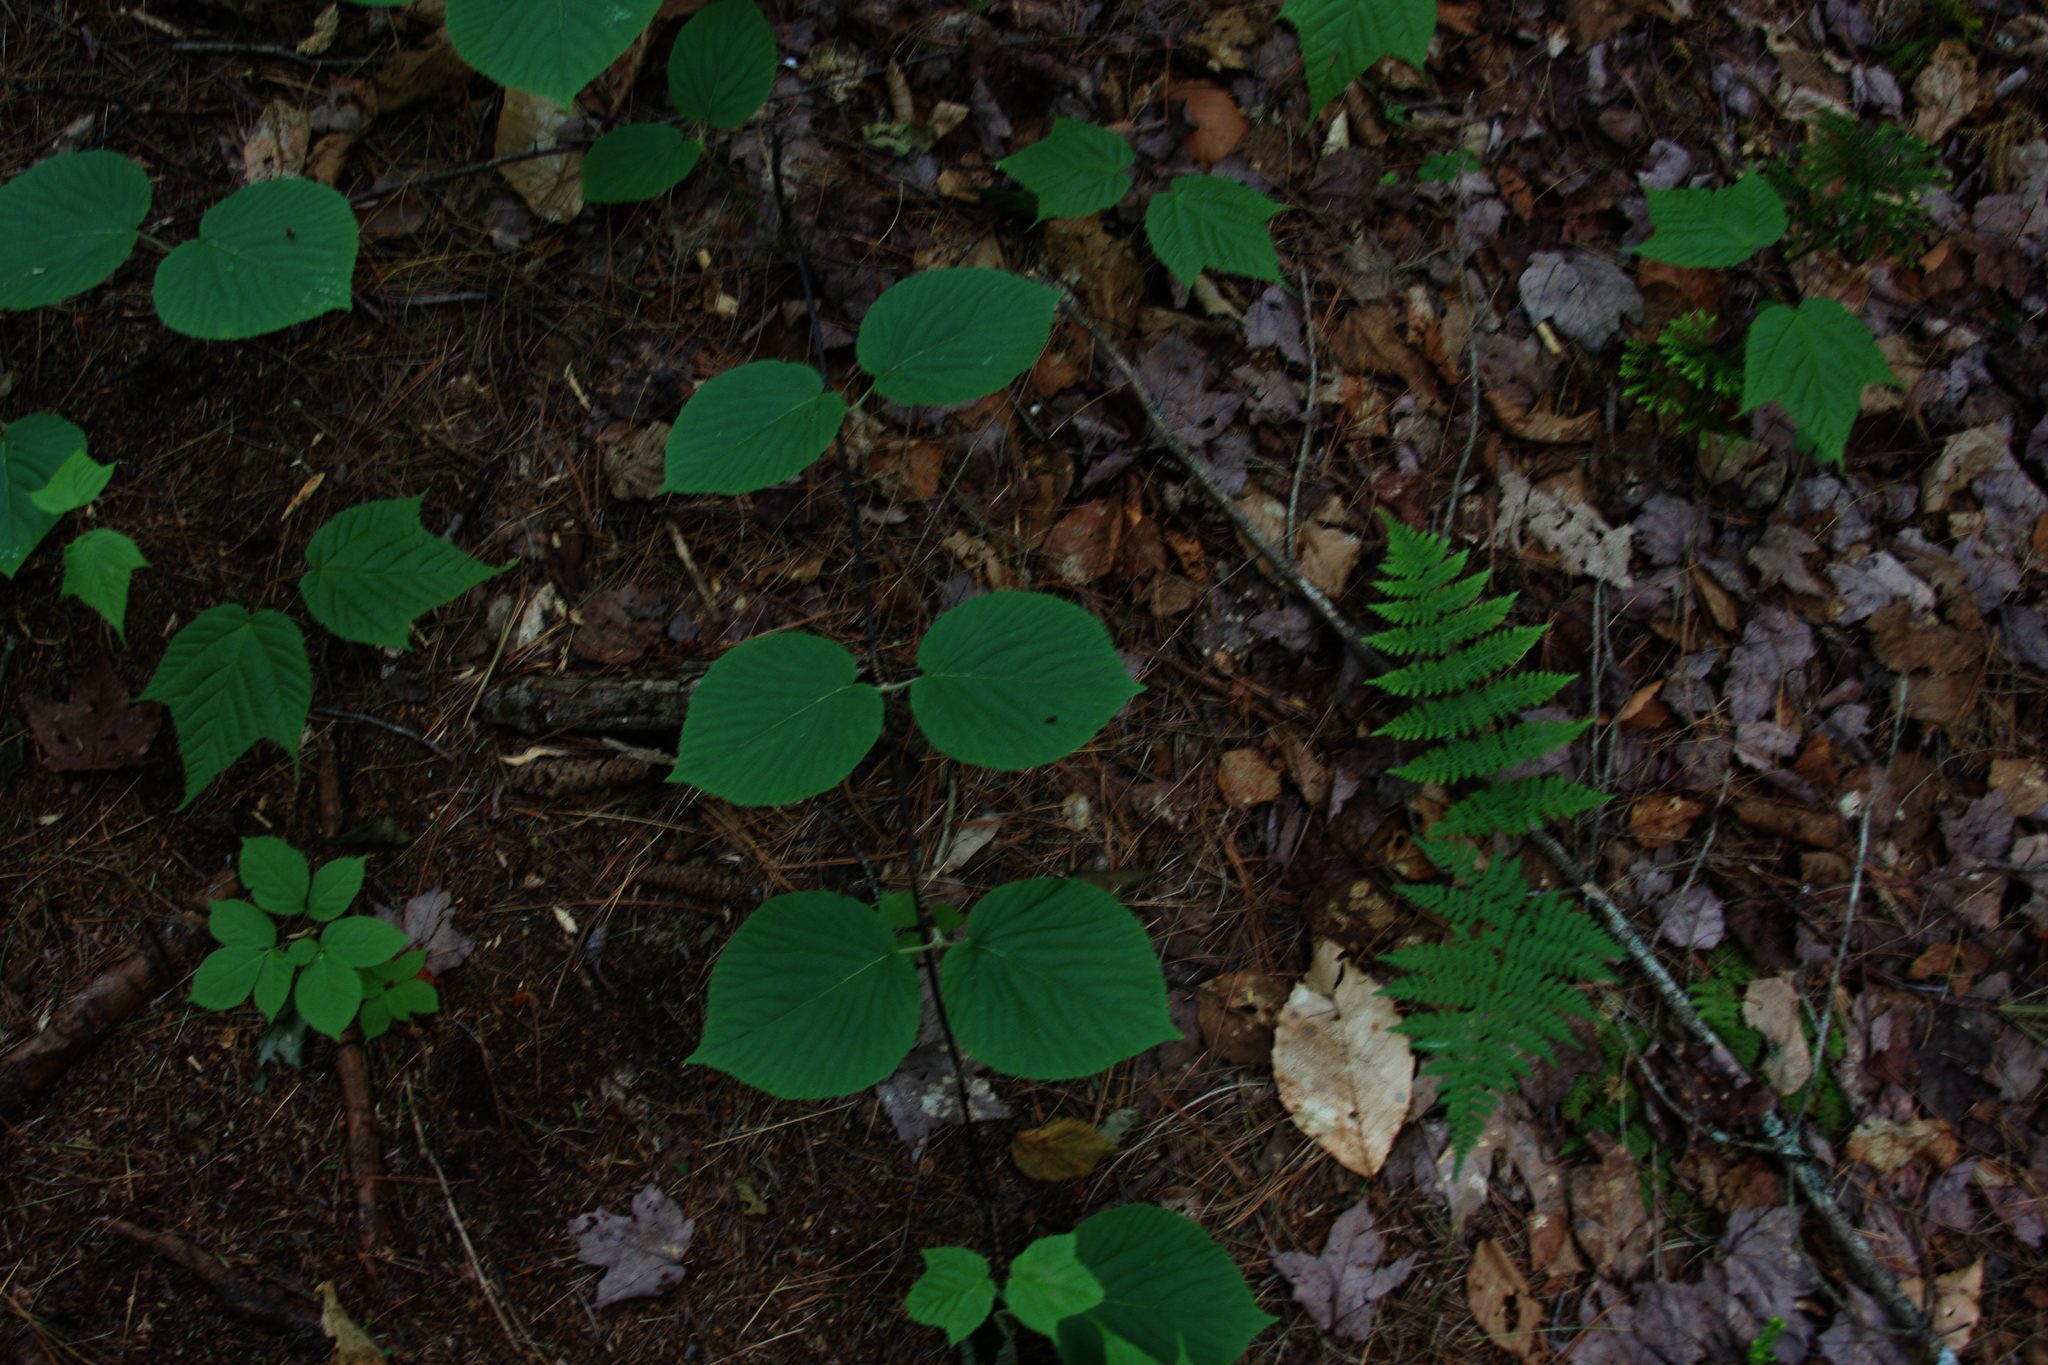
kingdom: Plantae
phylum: Tracheophyta
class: Magnoliopsida
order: Apiales
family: Araliaceae
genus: Aralia
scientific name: Aralia nudicaulis
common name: Wild sarsaparilla
